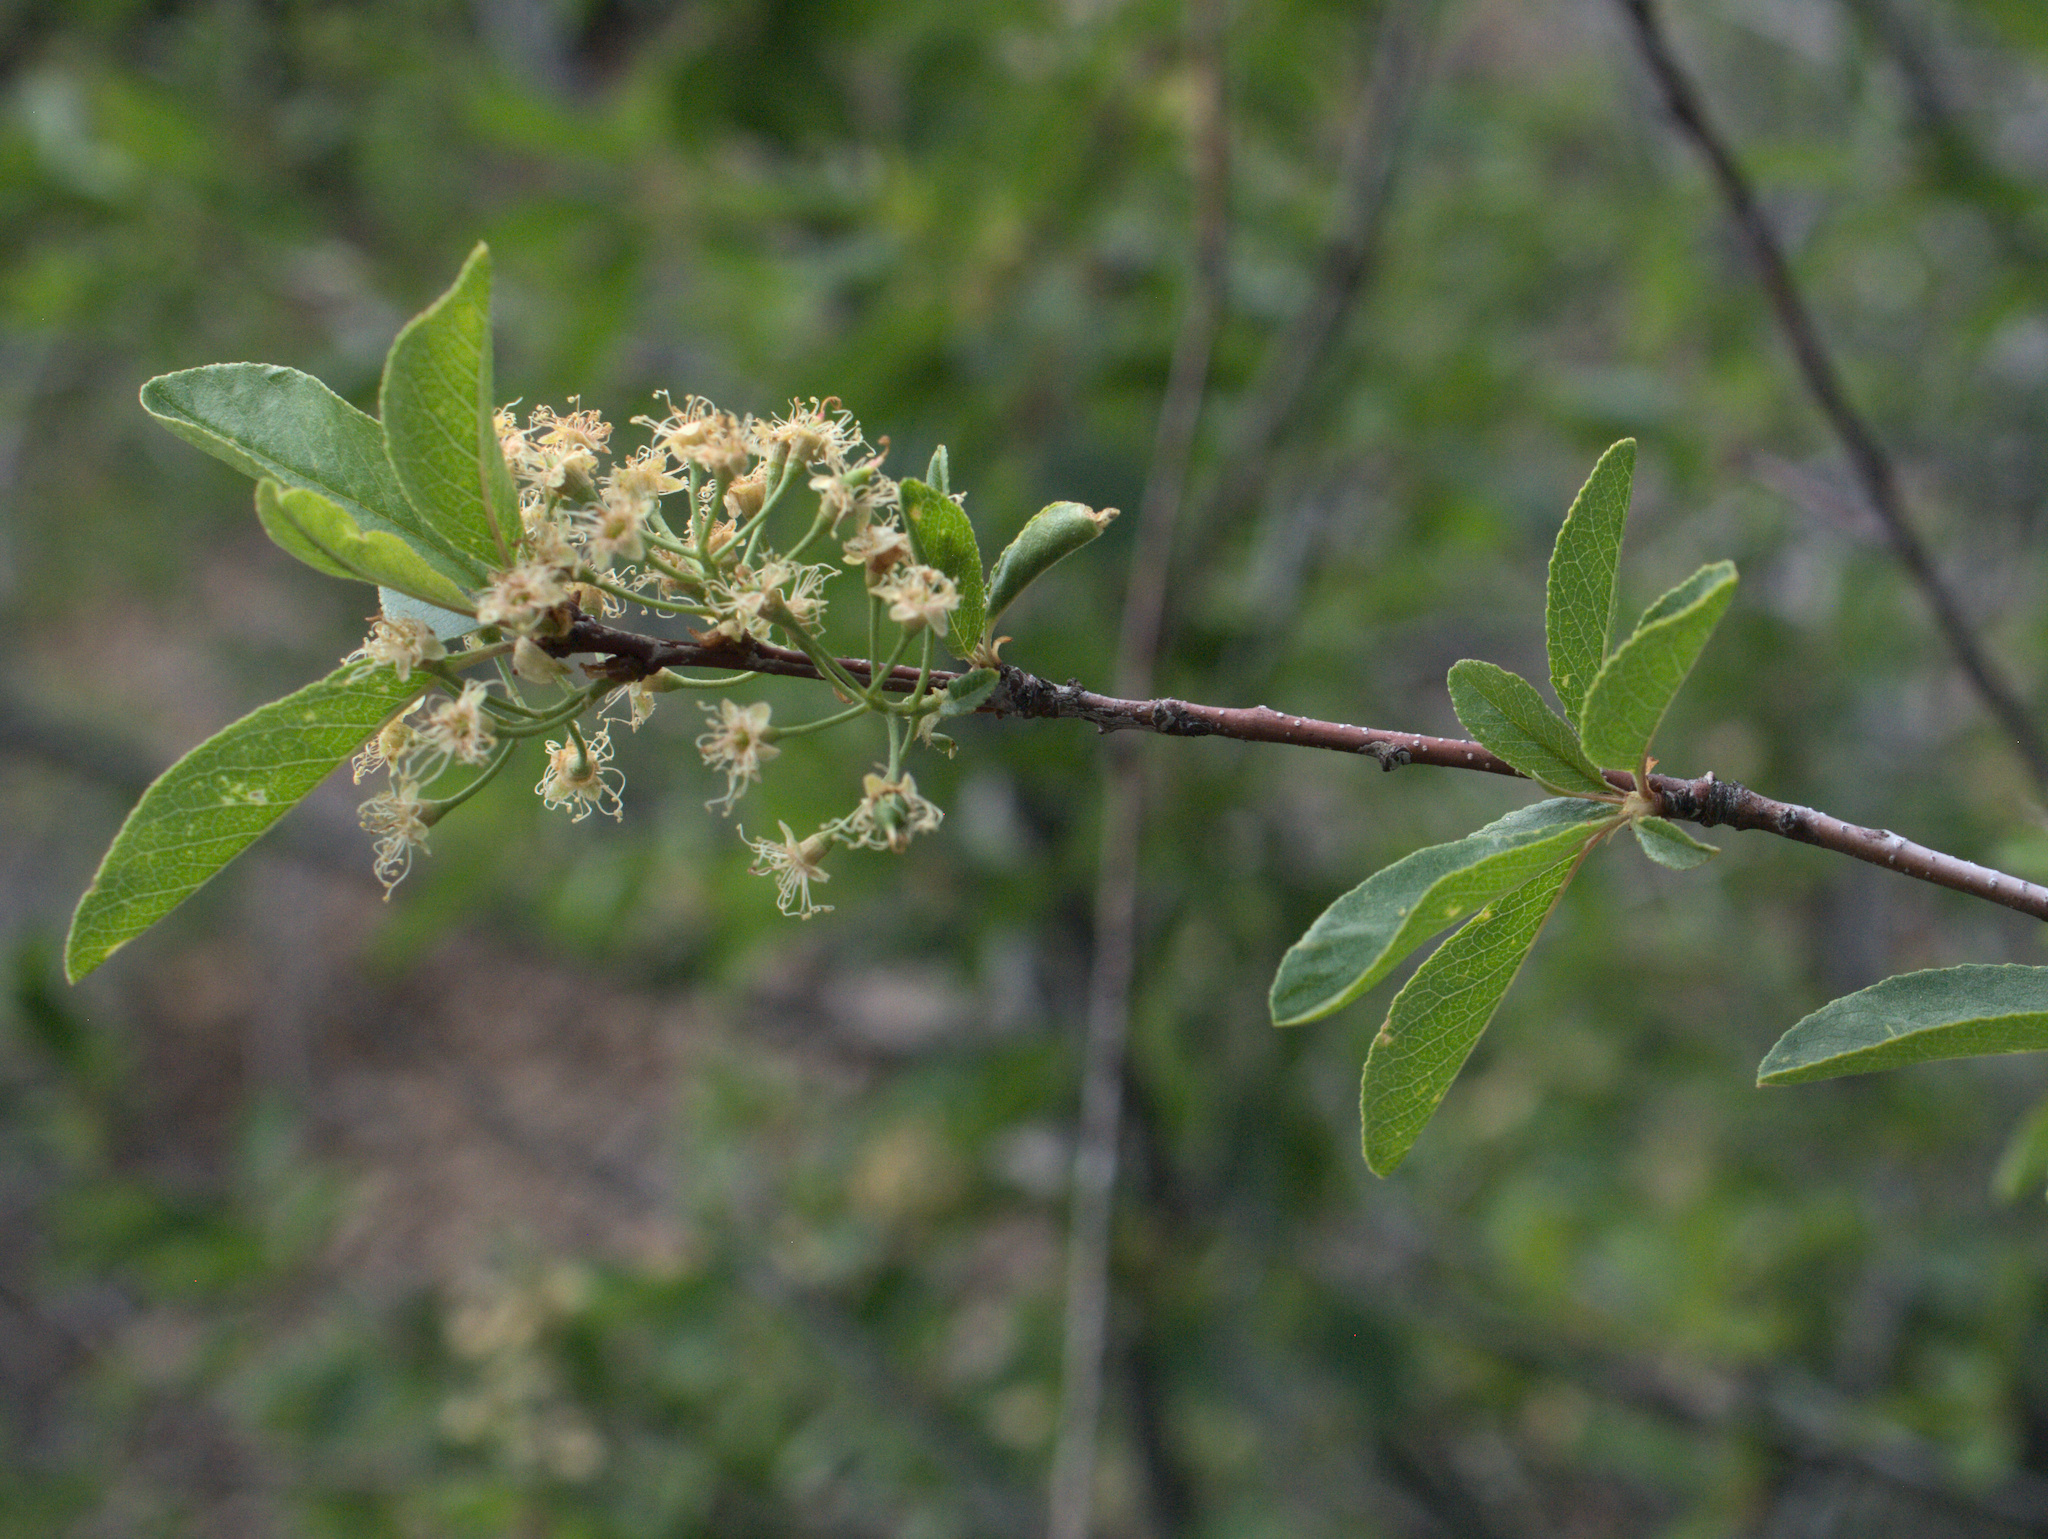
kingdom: Plantae
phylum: Tracheophyta
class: Magnoliopsida
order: Rosales
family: Rosaceae
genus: Prunus
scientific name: Prunus emarginata
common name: Bitter cherry
